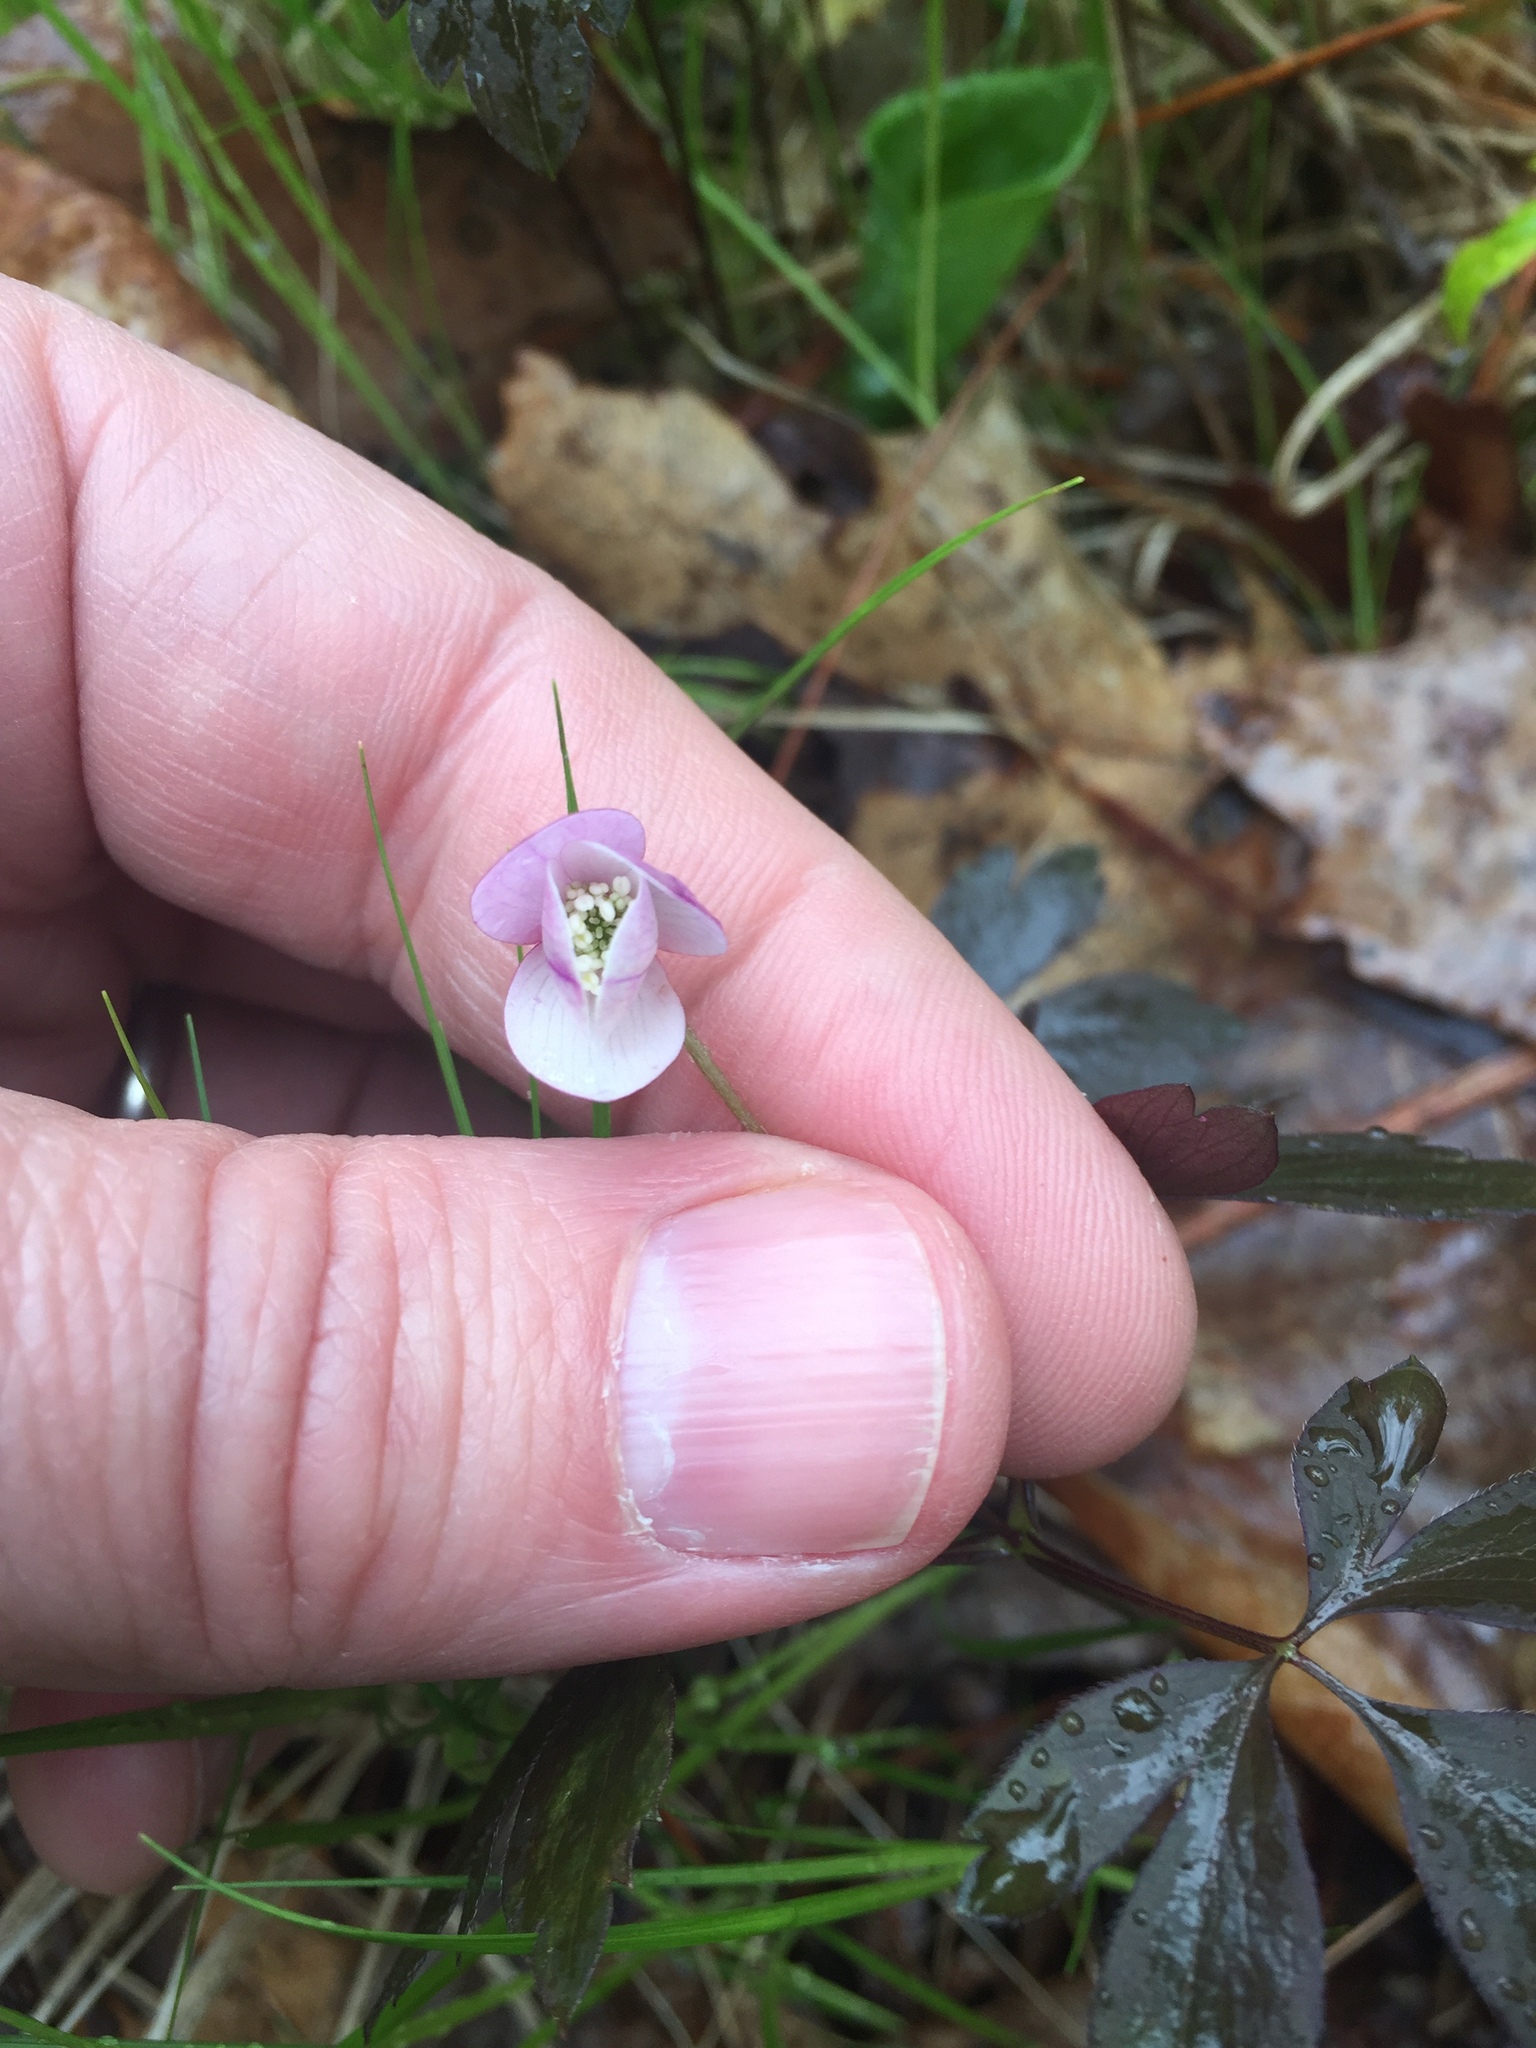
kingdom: Plantae
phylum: Tracheophyta
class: Magnoliopsida
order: Ranunculales
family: Ranunculaceae
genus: Anemone
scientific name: Anemone quinquefolia
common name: Wood anemone
